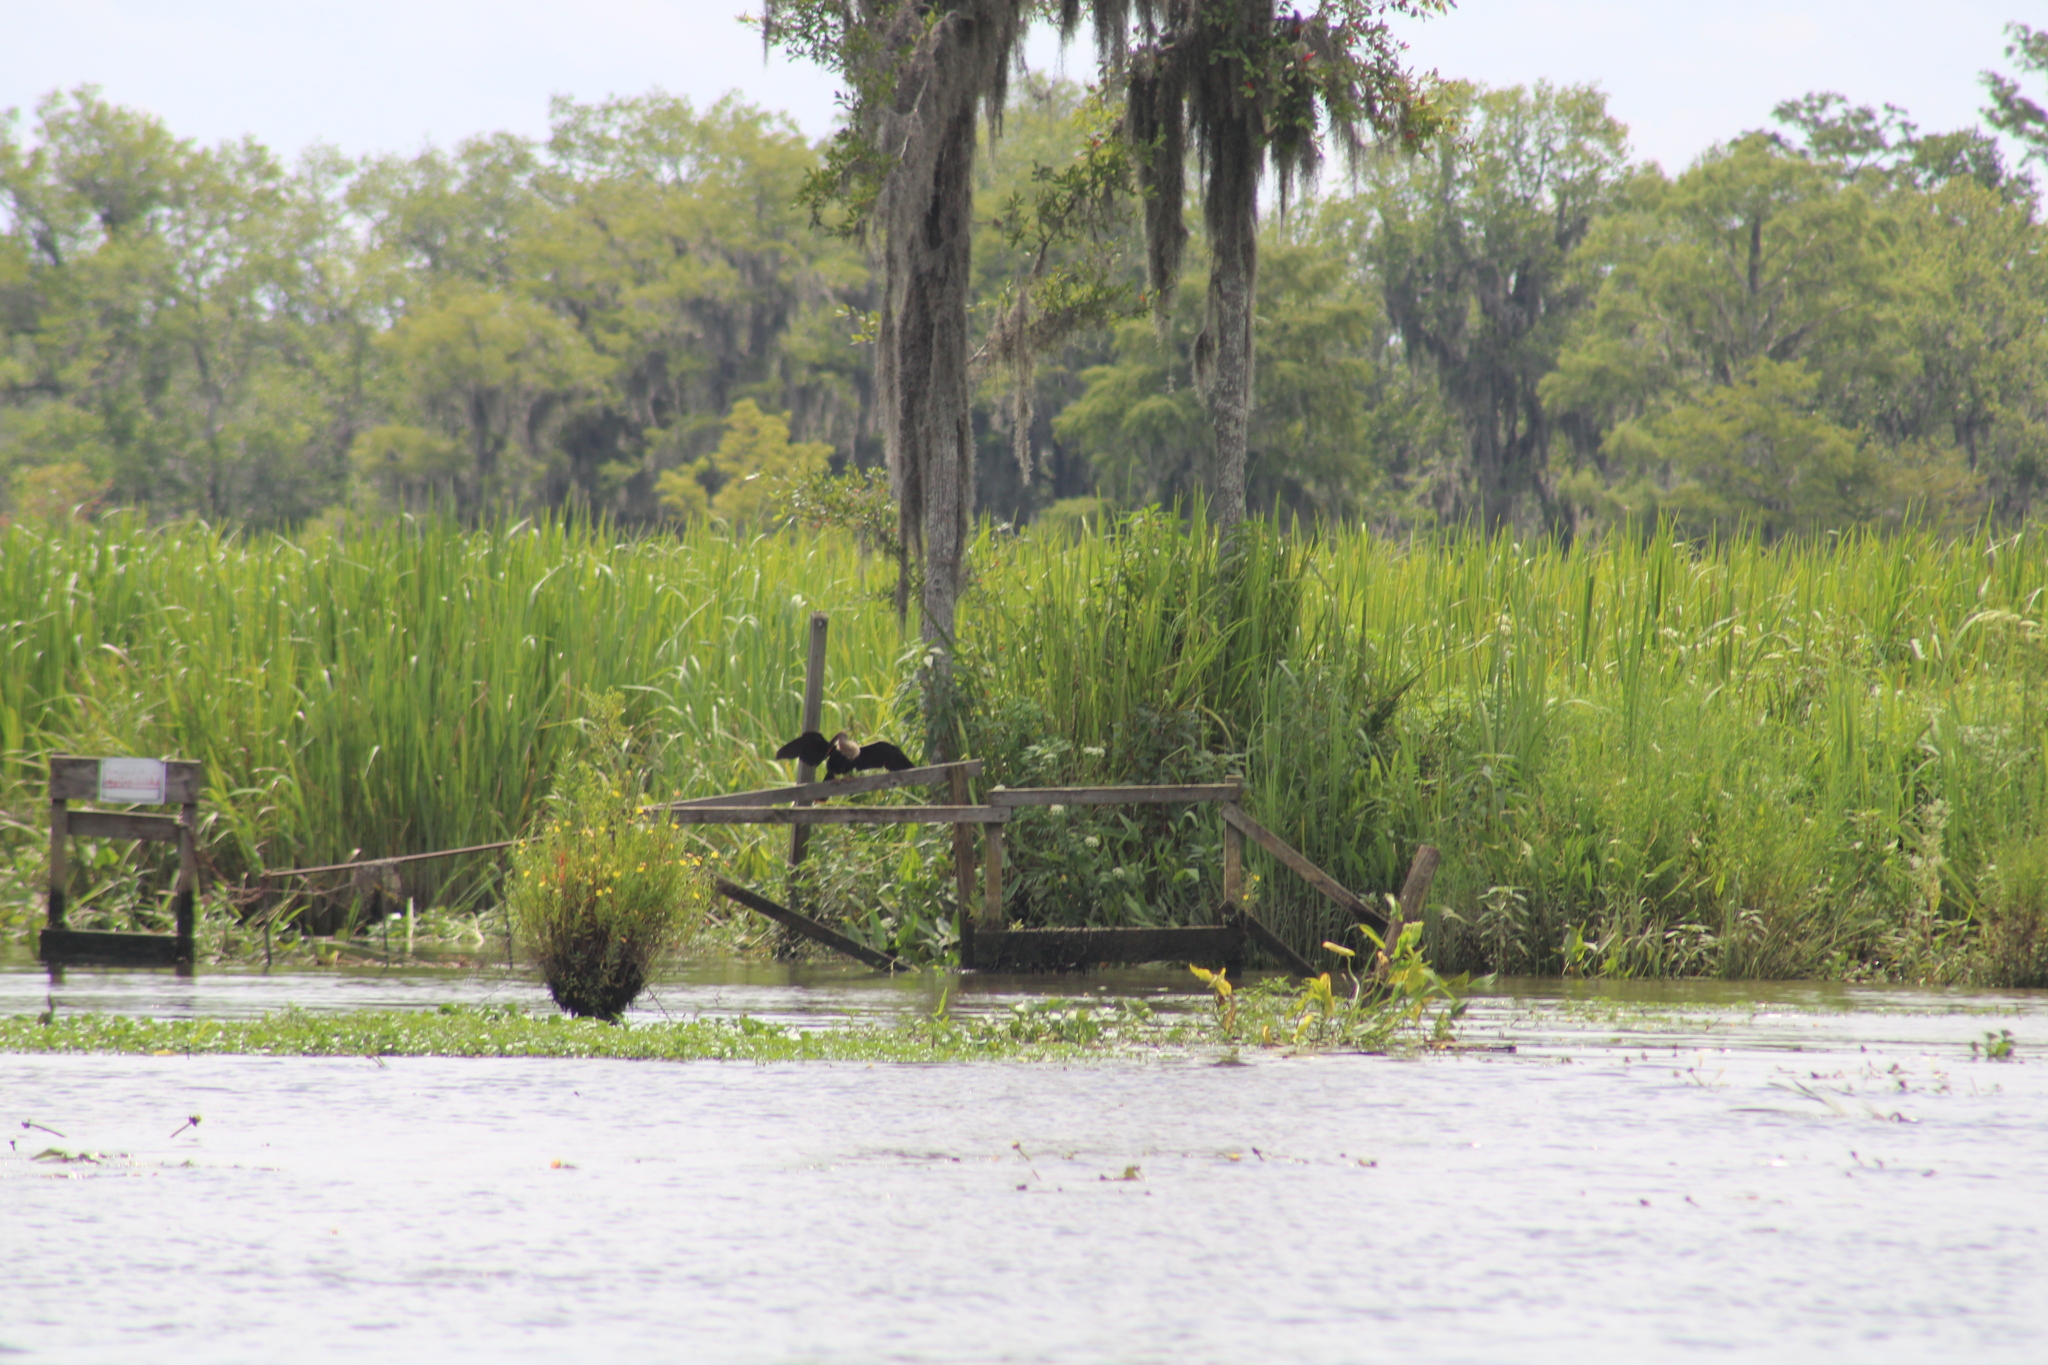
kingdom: Animalia
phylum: Chordata
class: Aves
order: Suliformes
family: Anhingidae
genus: Anhinga
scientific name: Anhinga anhinga
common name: Anhinga
